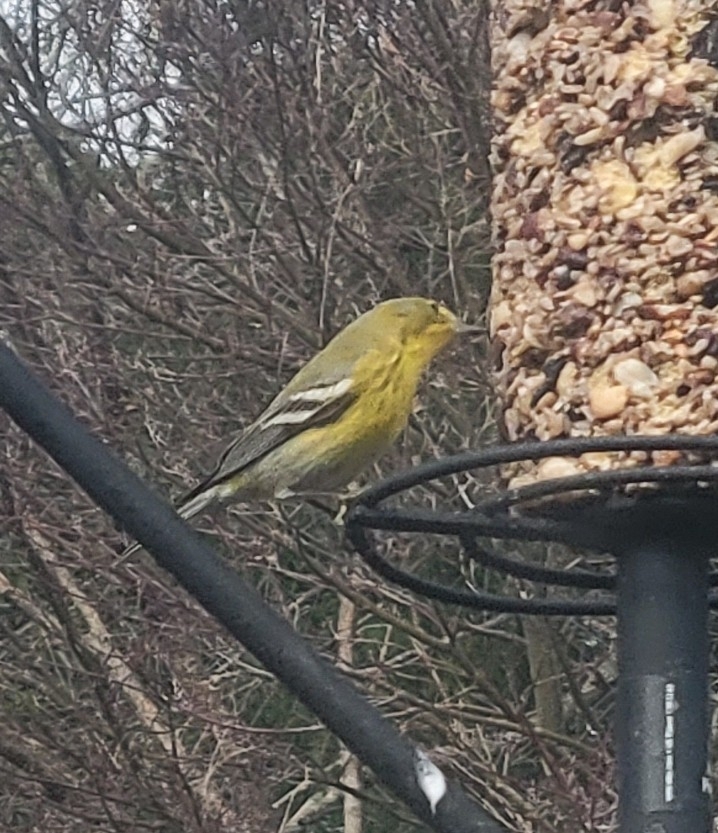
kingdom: Animalia
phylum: Chordata
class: Aves
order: Passeriformes
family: Parulidae
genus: Setophaga
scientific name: Setophaga pinus
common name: Pine warbler
